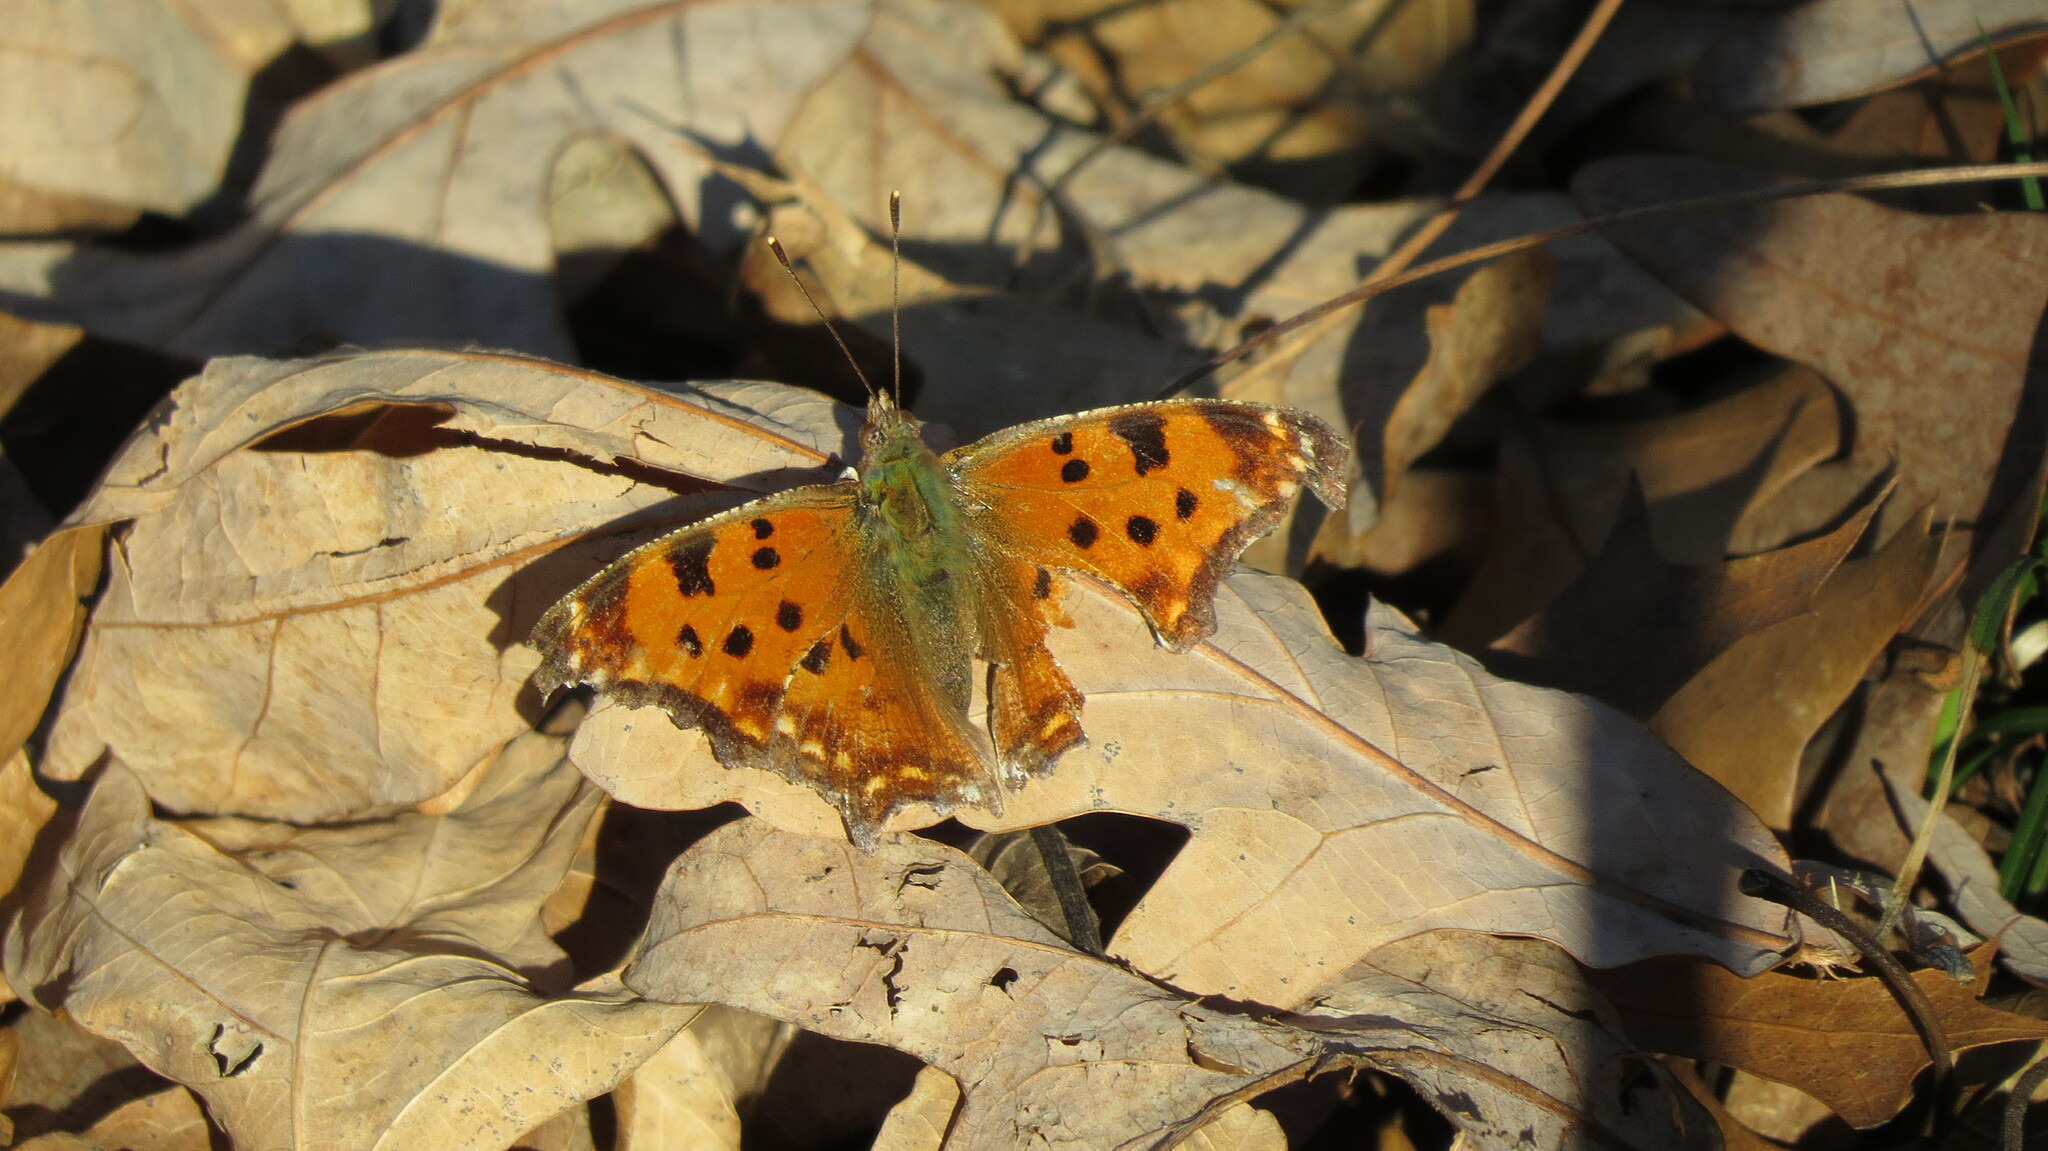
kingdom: Animalia
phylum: Arthropoda
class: Insecta
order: Lepidoptera
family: Nymphalidae
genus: Polygonia
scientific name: Polygonia comma
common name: Eastern comma
